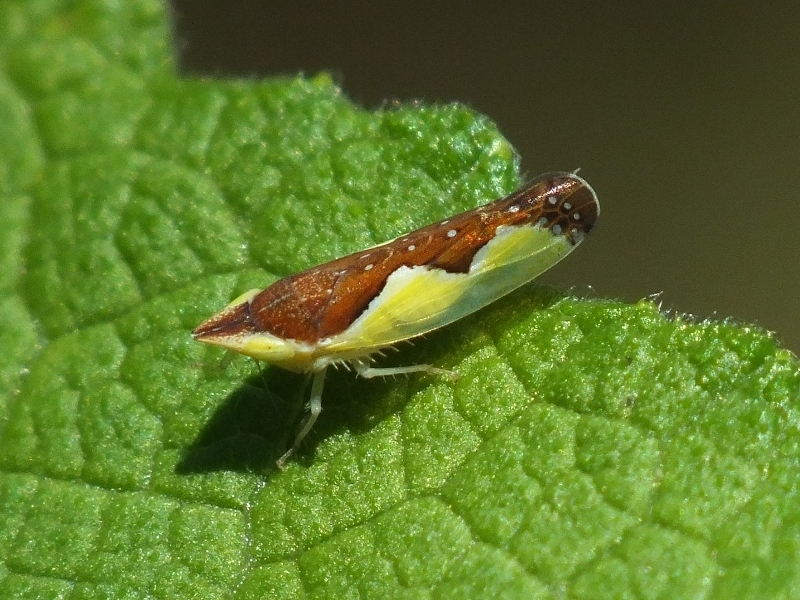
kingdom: Animalia
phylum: Arthropoda
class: Insecta
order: Hemiptera
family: Cicadellidae
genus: Platymetopius
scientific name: Platymetopius undatus
